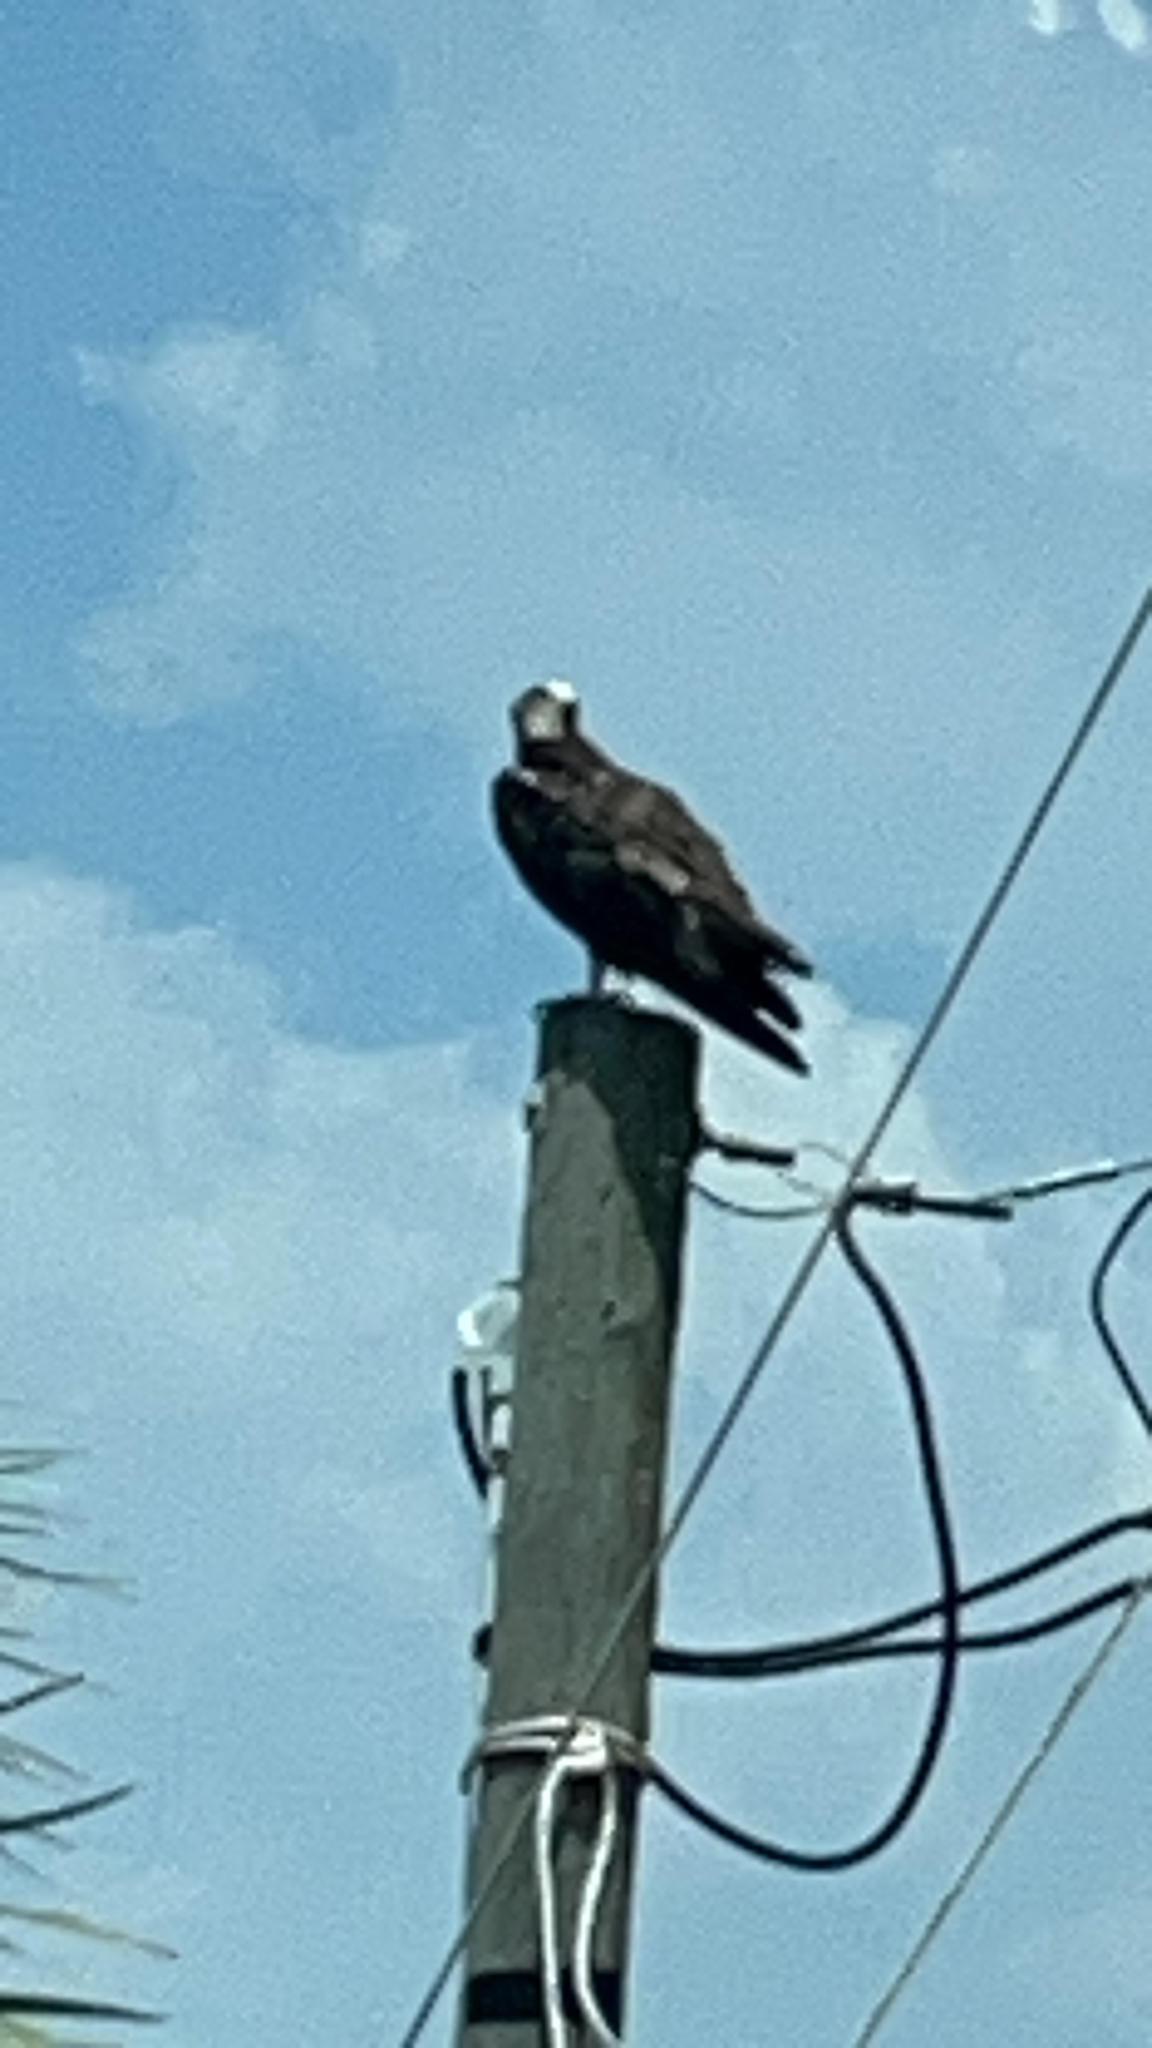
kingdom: Animalia
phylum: Chordata
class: Aves
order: Accipitriformes
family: Pandionidae
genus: Pandion
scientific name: Pandion haliaetus
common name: Osprey
